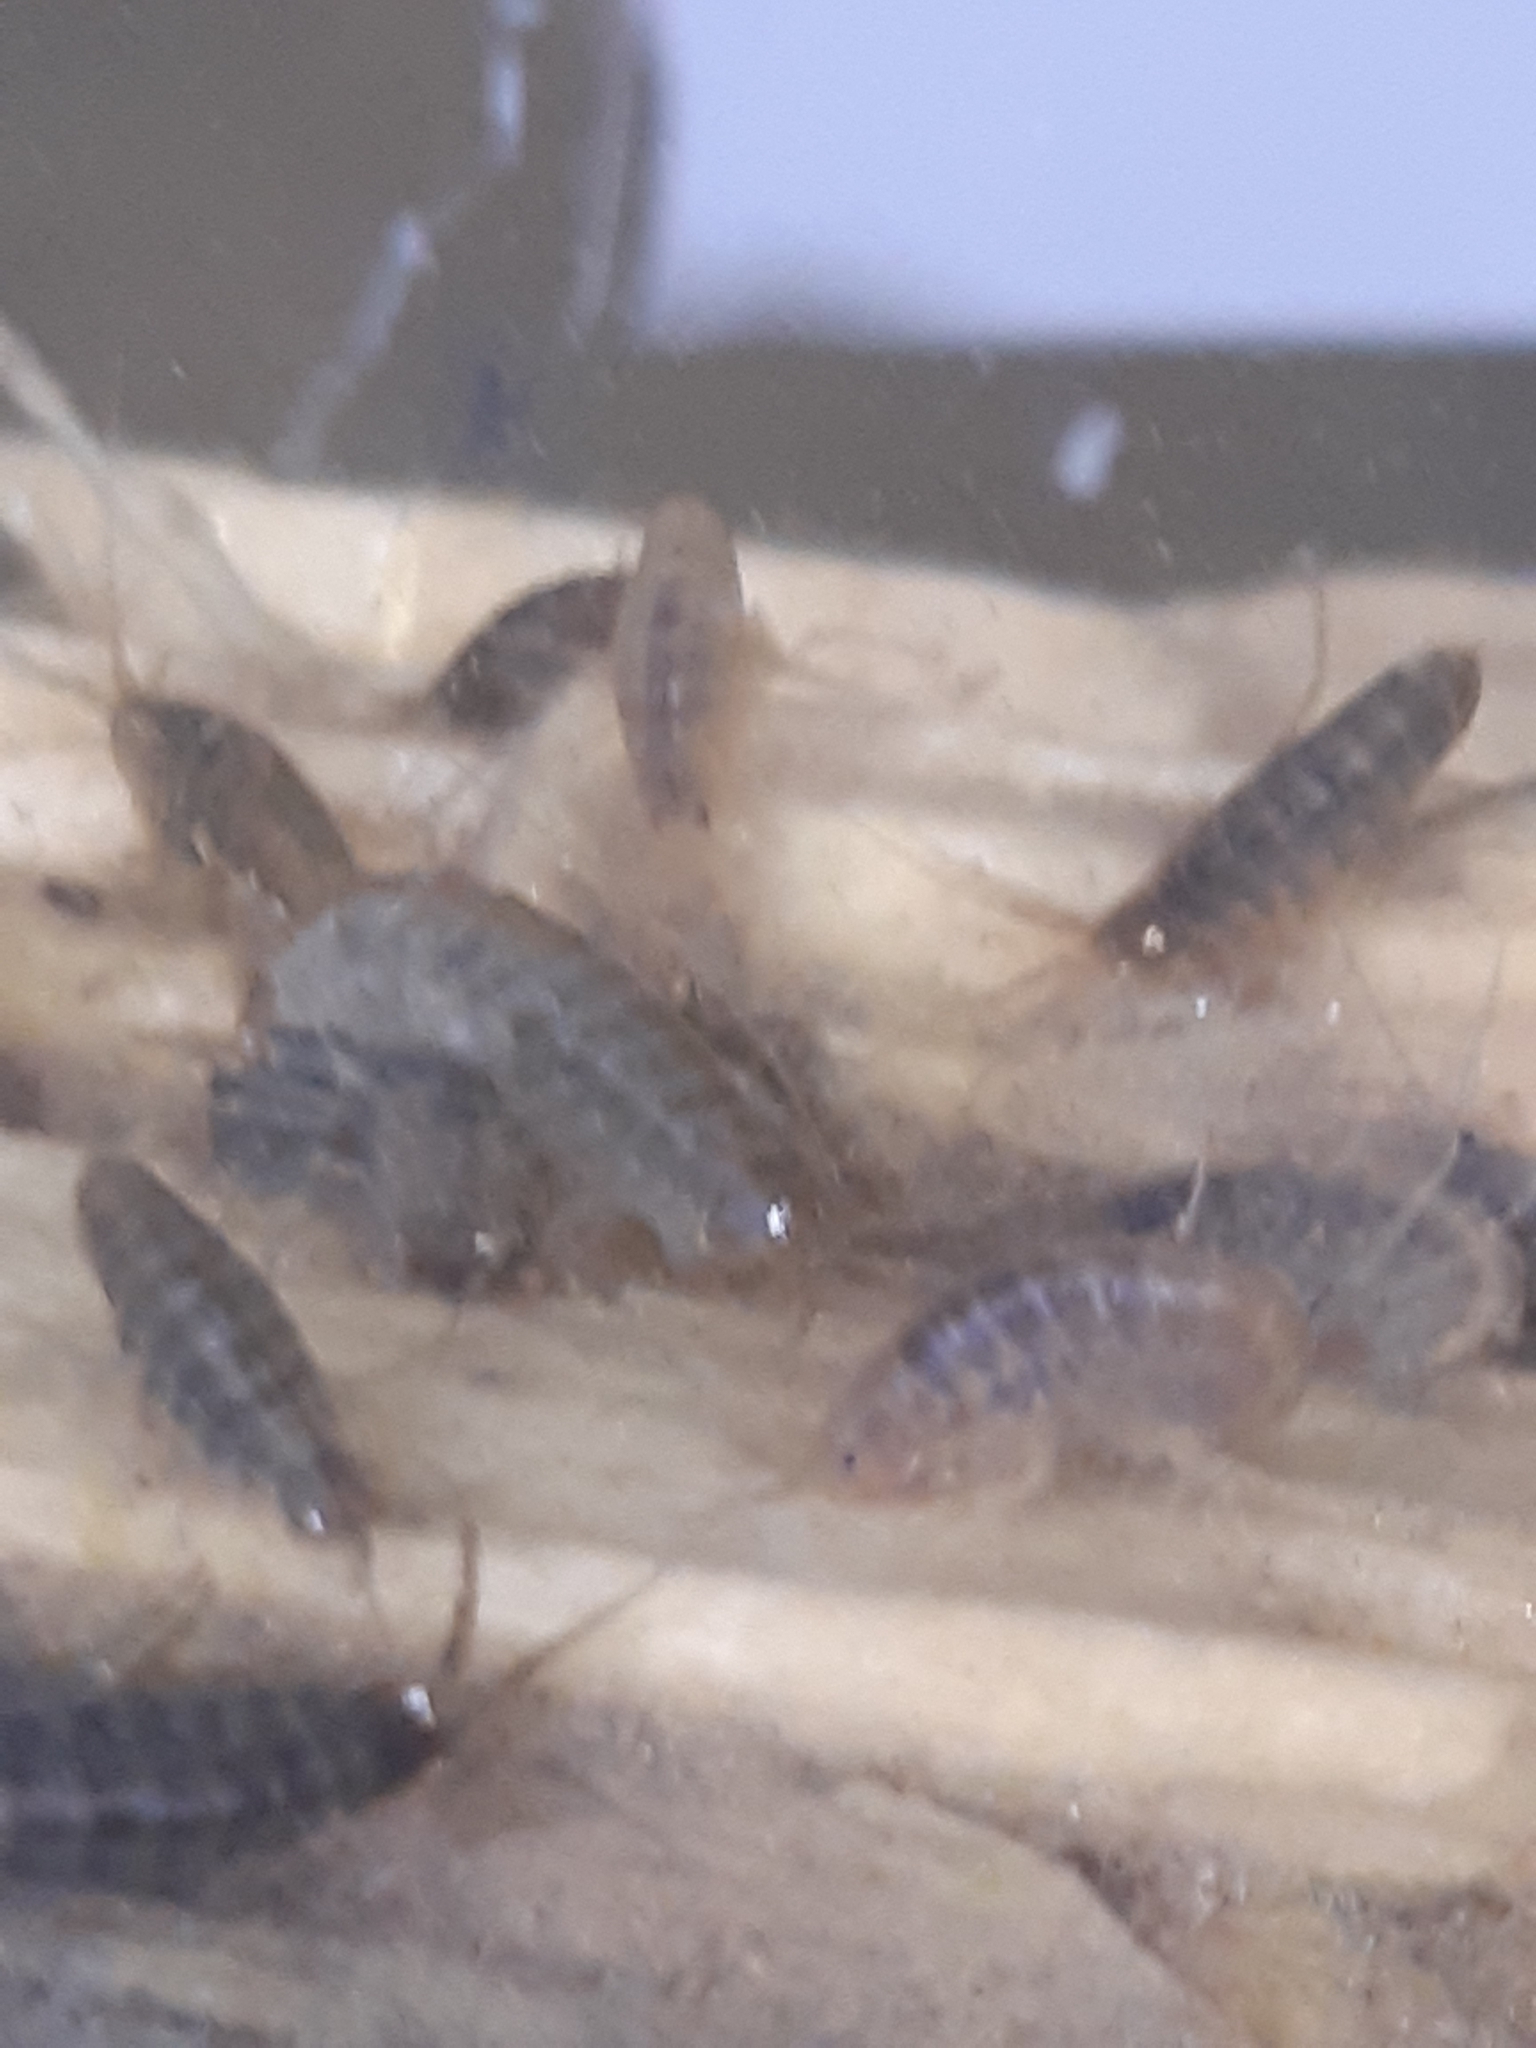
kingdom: Animalia
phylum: Arthropoda
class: Malacostraca
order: Amphipoda
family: Gammaridae
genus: Gammarus
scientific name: Gammarus roeselii
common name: Lacustrine amphipod
